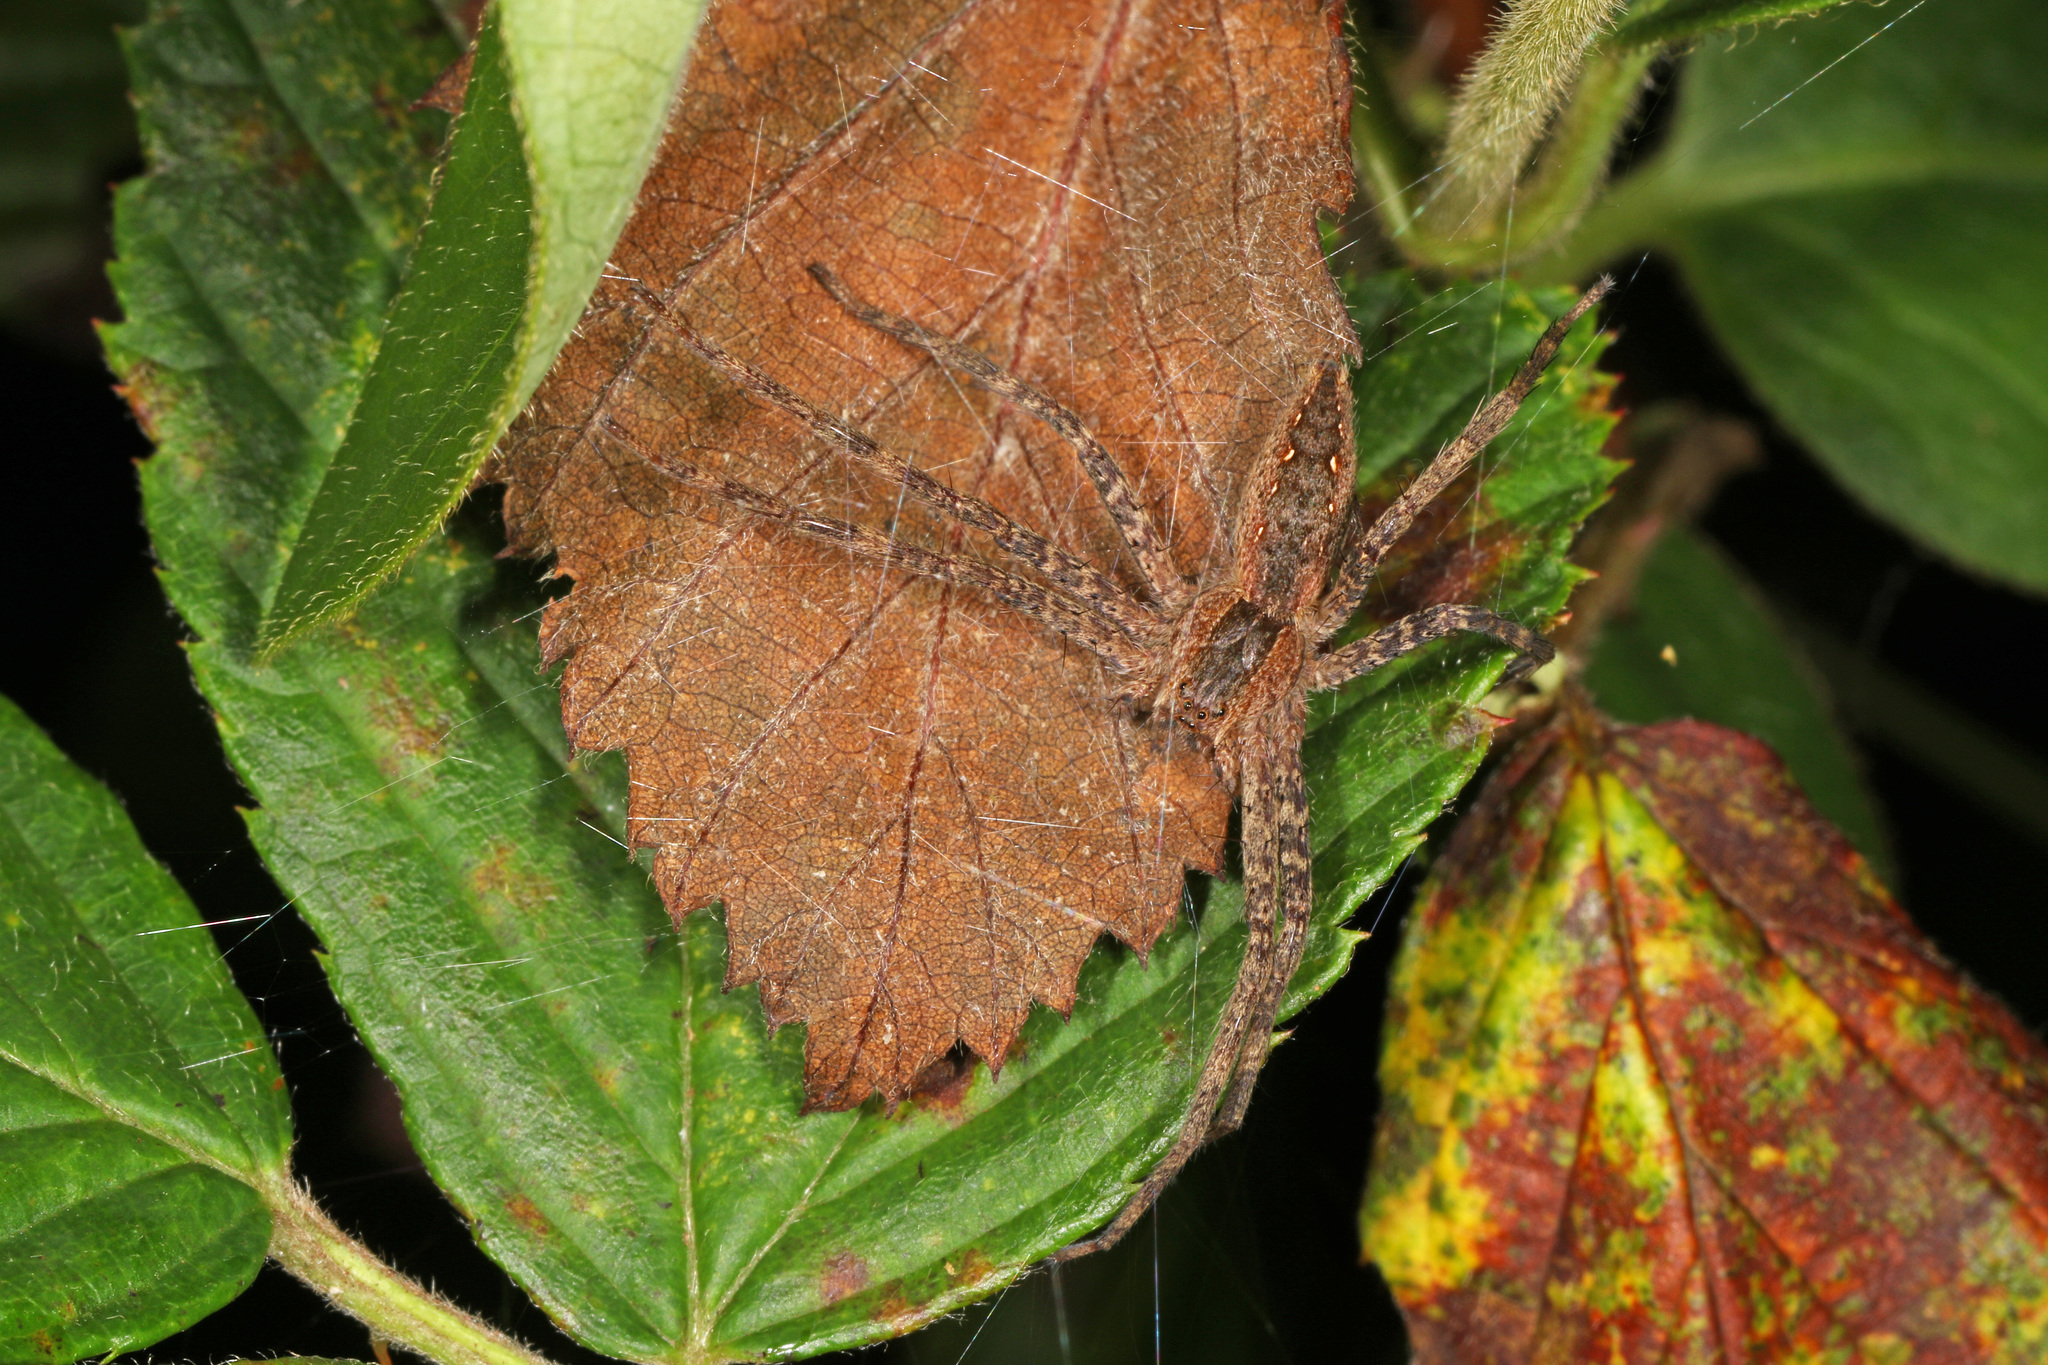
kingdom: Animalia
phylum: Arthropoda
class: Arachnida
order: Araneae
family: Pisauridae
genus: Pisaurina
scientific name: Pisaurina mira
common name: American nursery web spider
